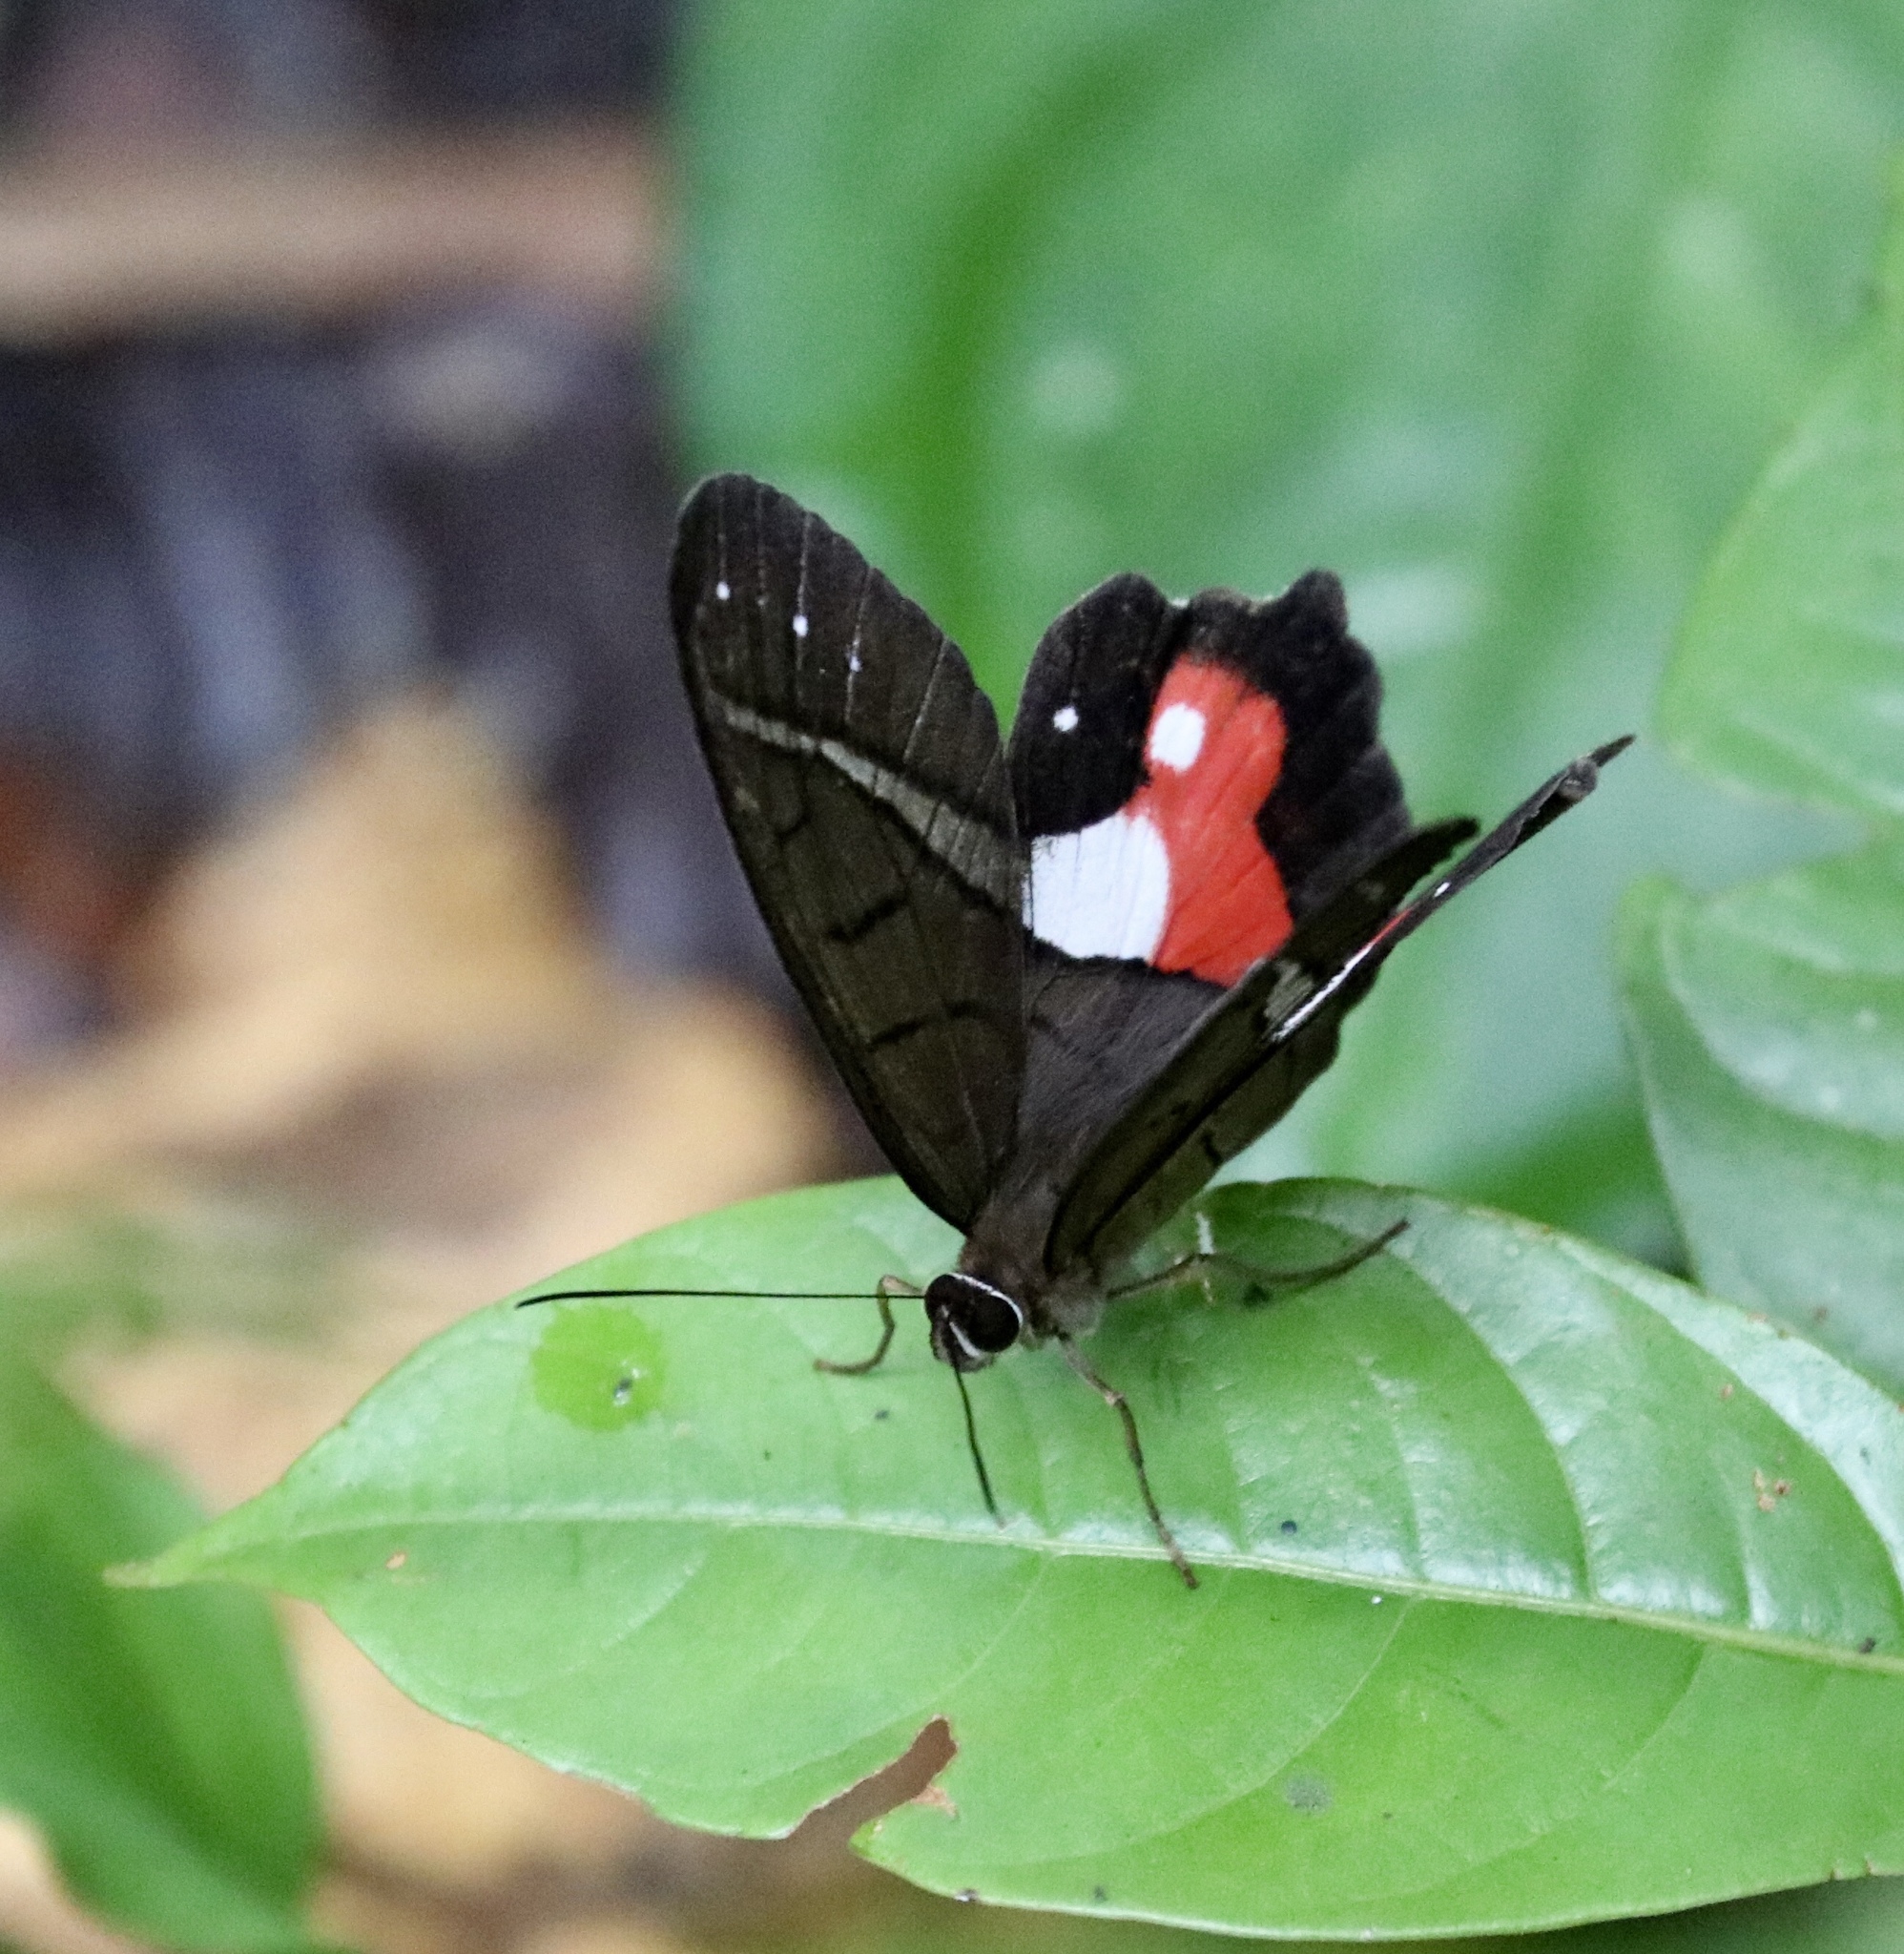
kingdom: Animalia
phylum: Arthropoda
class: Insecta
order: Lepidoptera
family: Nymphalidae
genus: Pierella
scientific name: Pierella helvina
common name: Red-washed satyr
